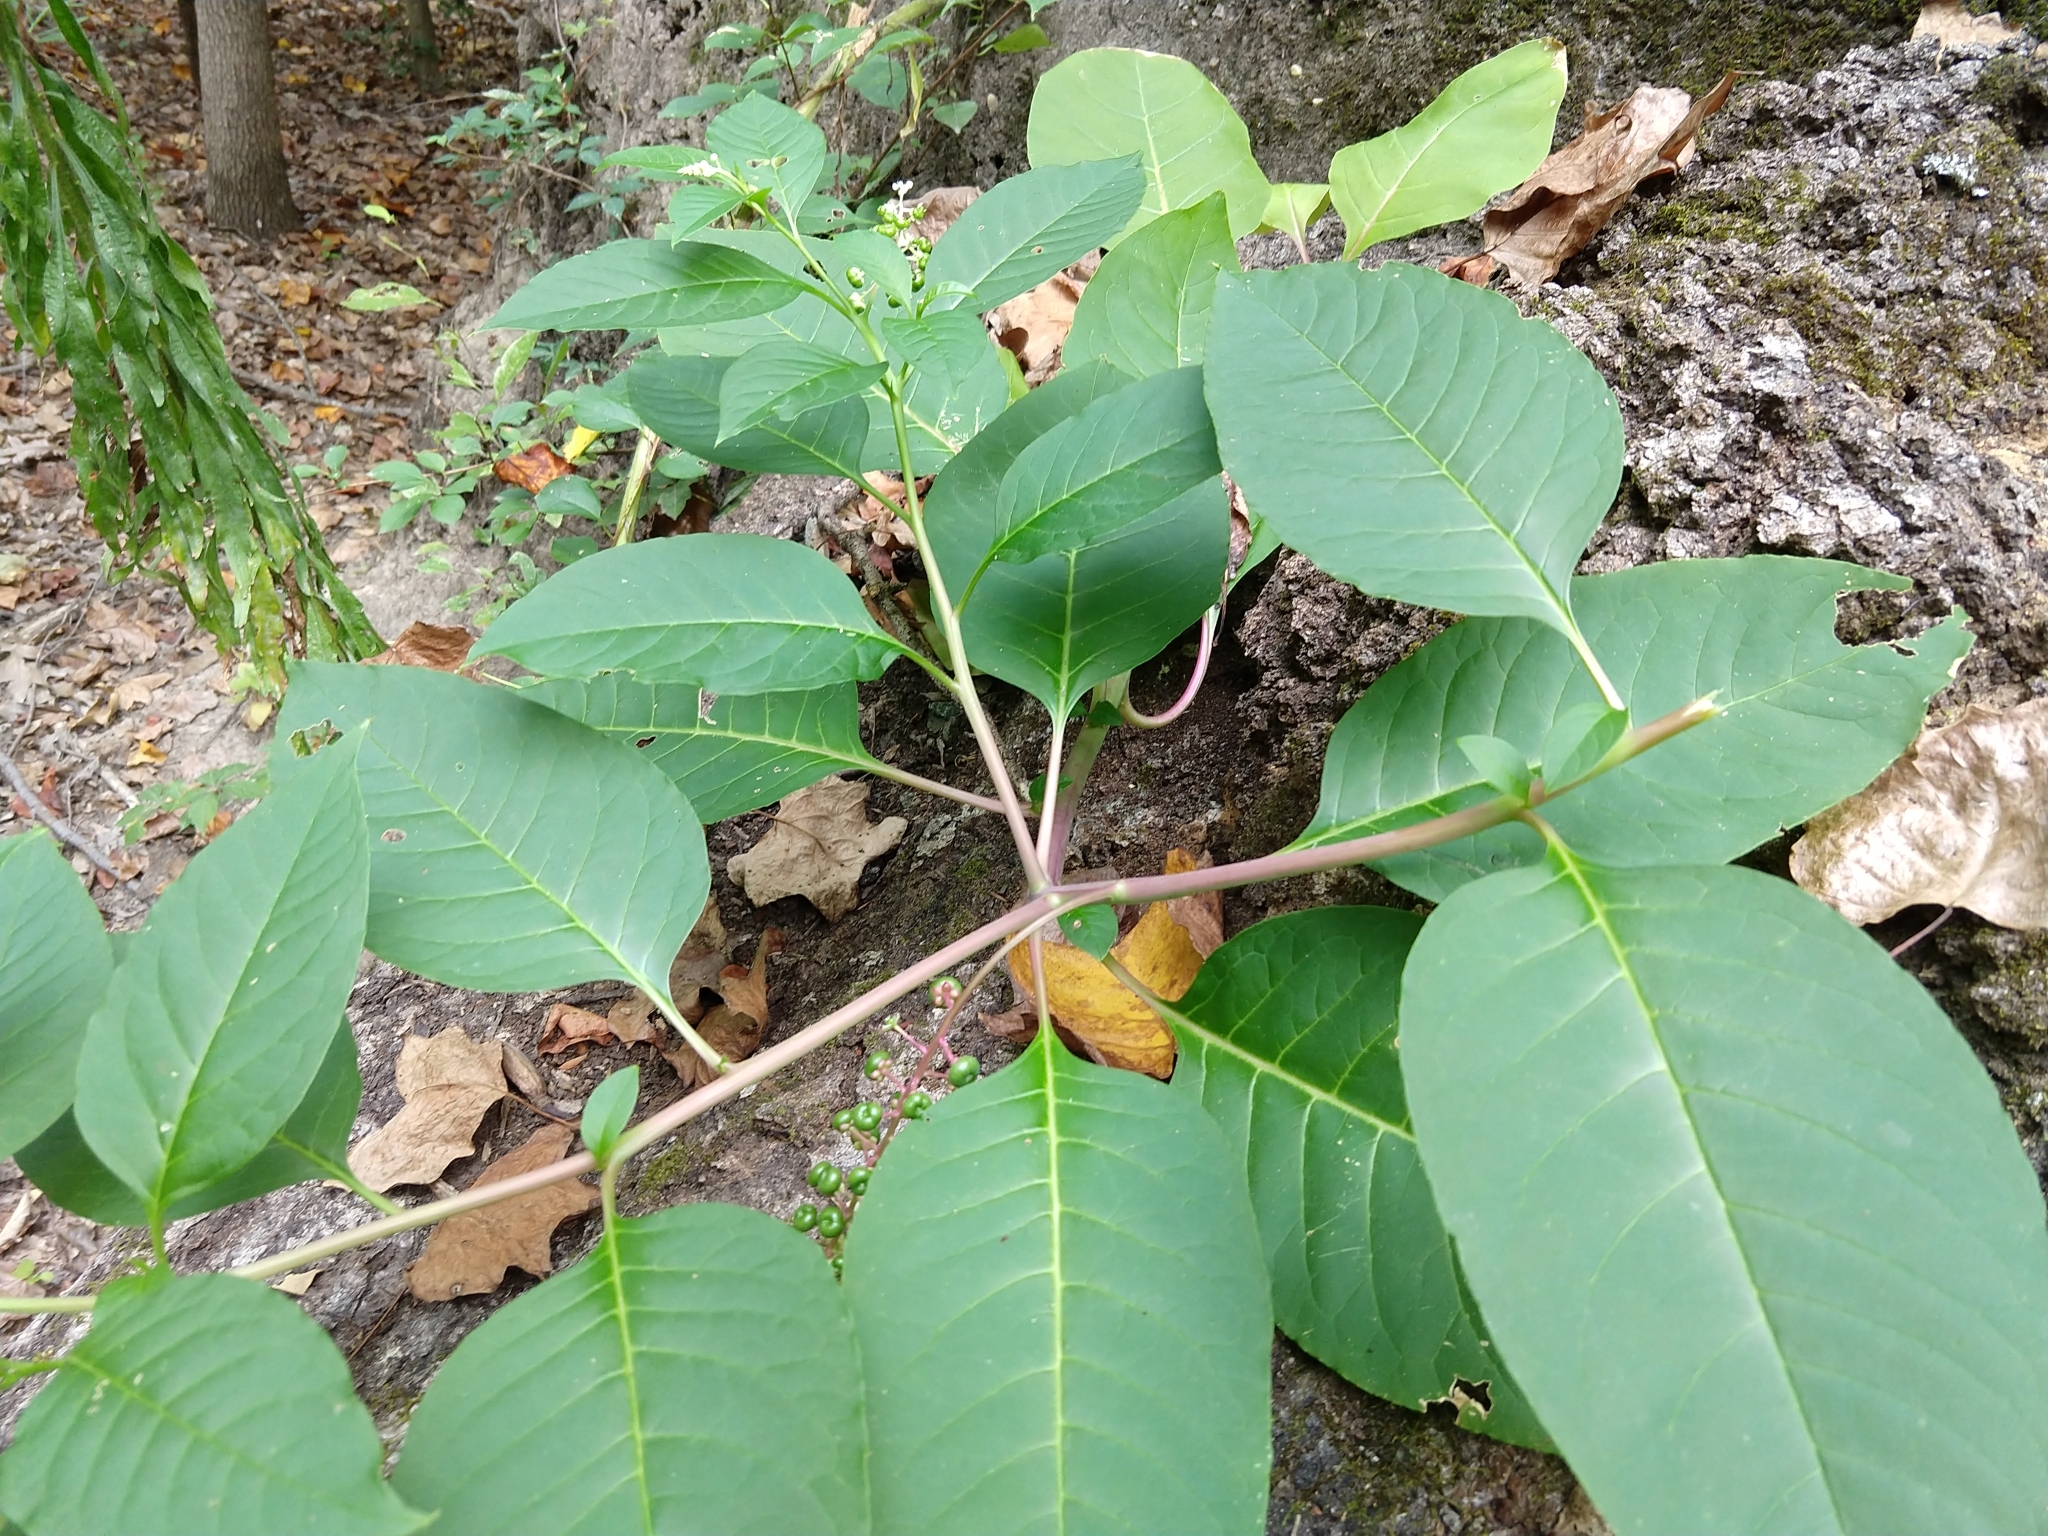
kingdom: Plantae
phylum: Tracheophyta
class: Magnoliopsida
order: Caryophyllales
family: Phytolaccaceae
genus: Phytolacca
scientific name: Phytolacca americana
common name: American pokeweed
